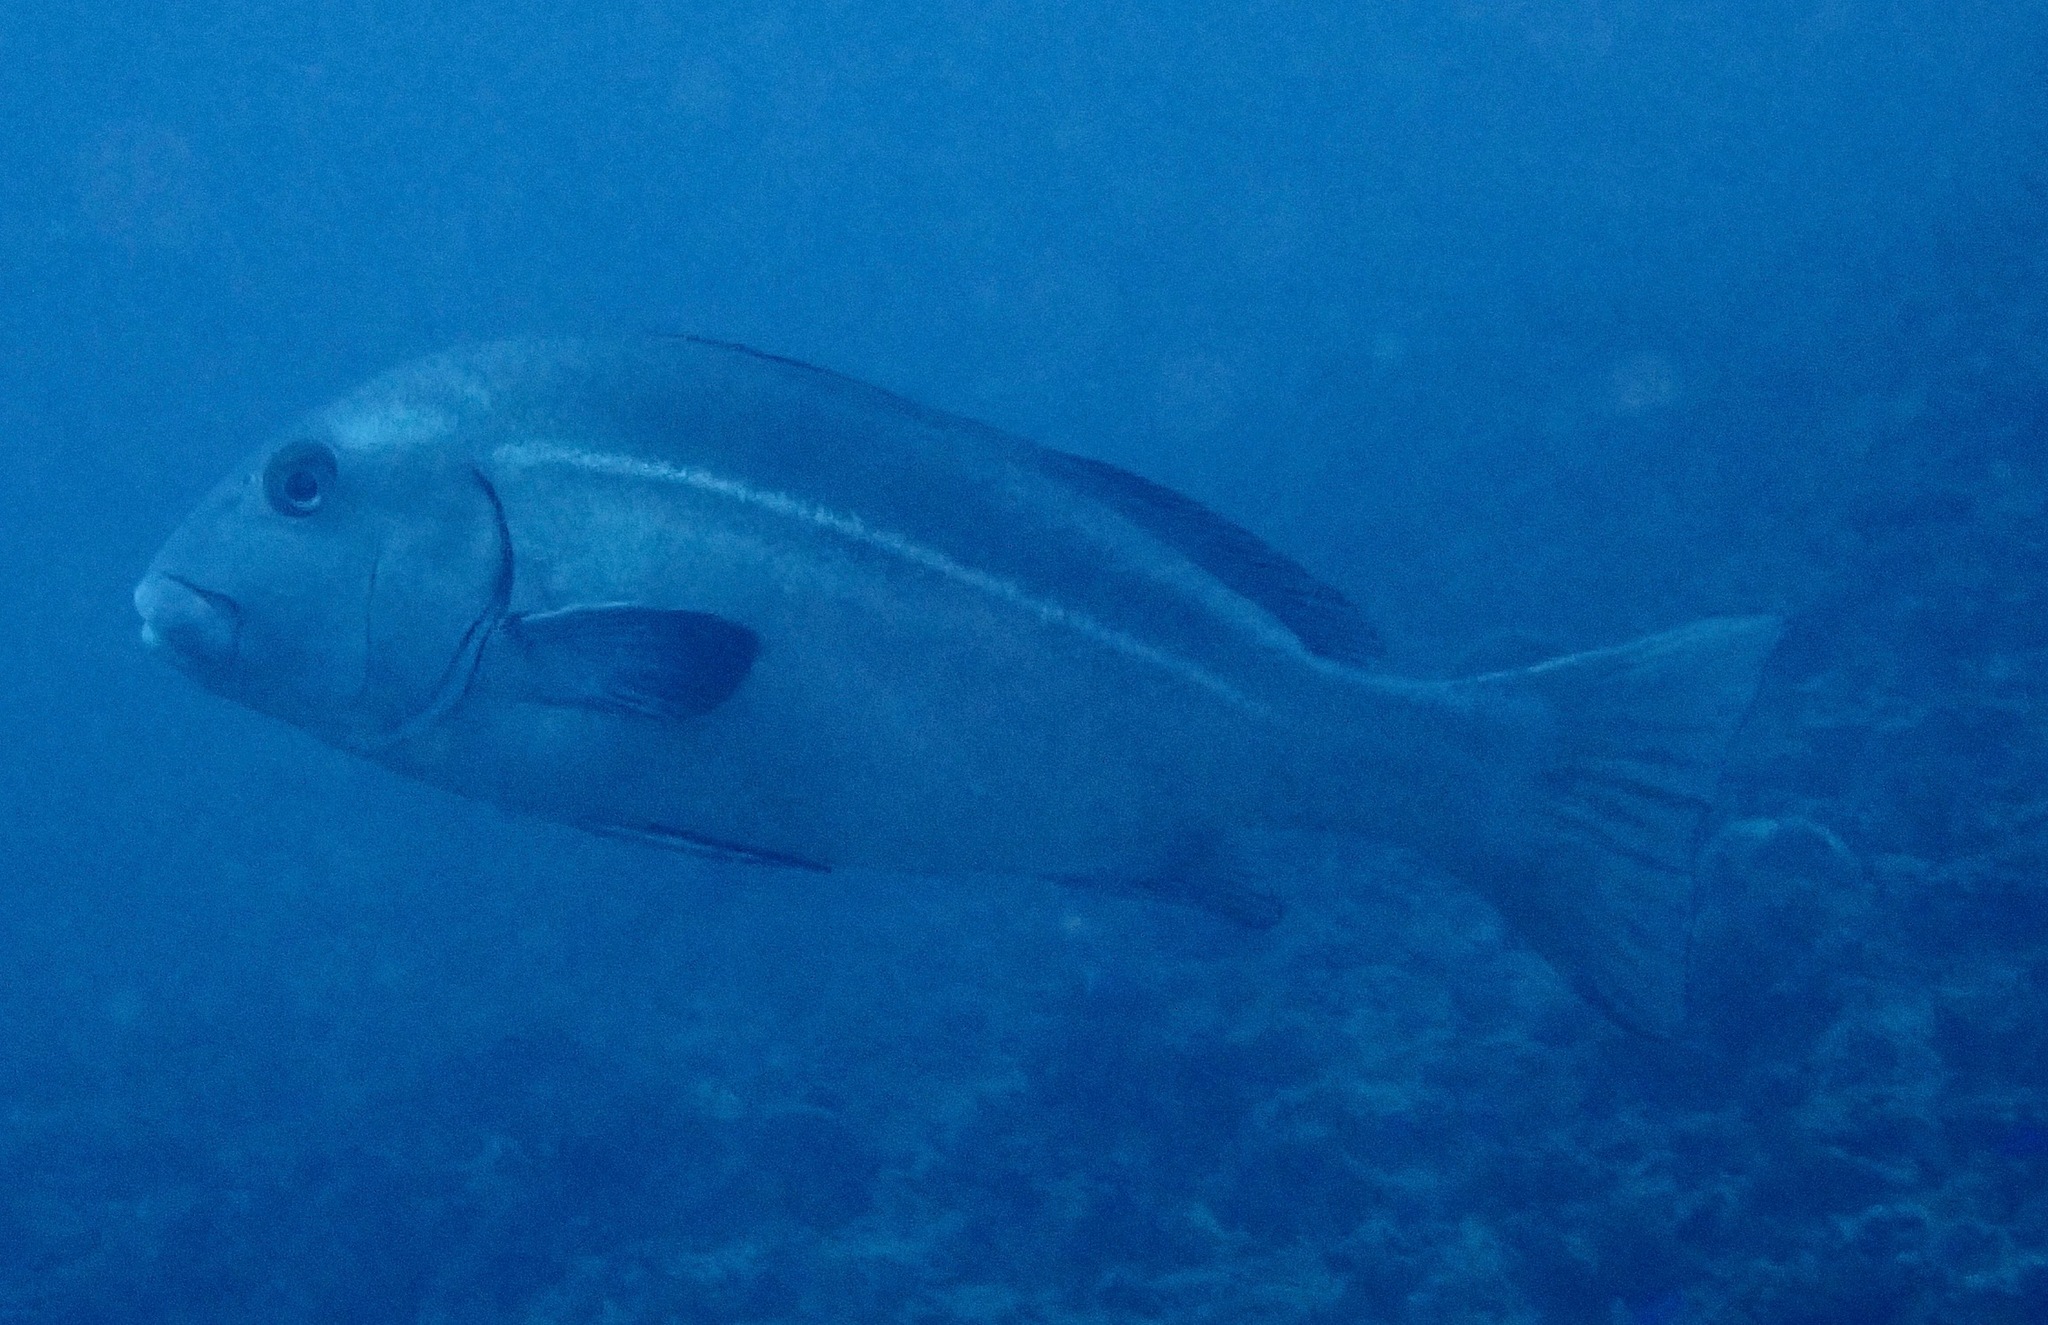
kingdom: Animalia
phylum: Chordata
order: Perciformes
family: Haemulidae
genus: Plectorhinchus
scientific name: Plectorhinchus caeruleonothus
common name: Blue bastard
